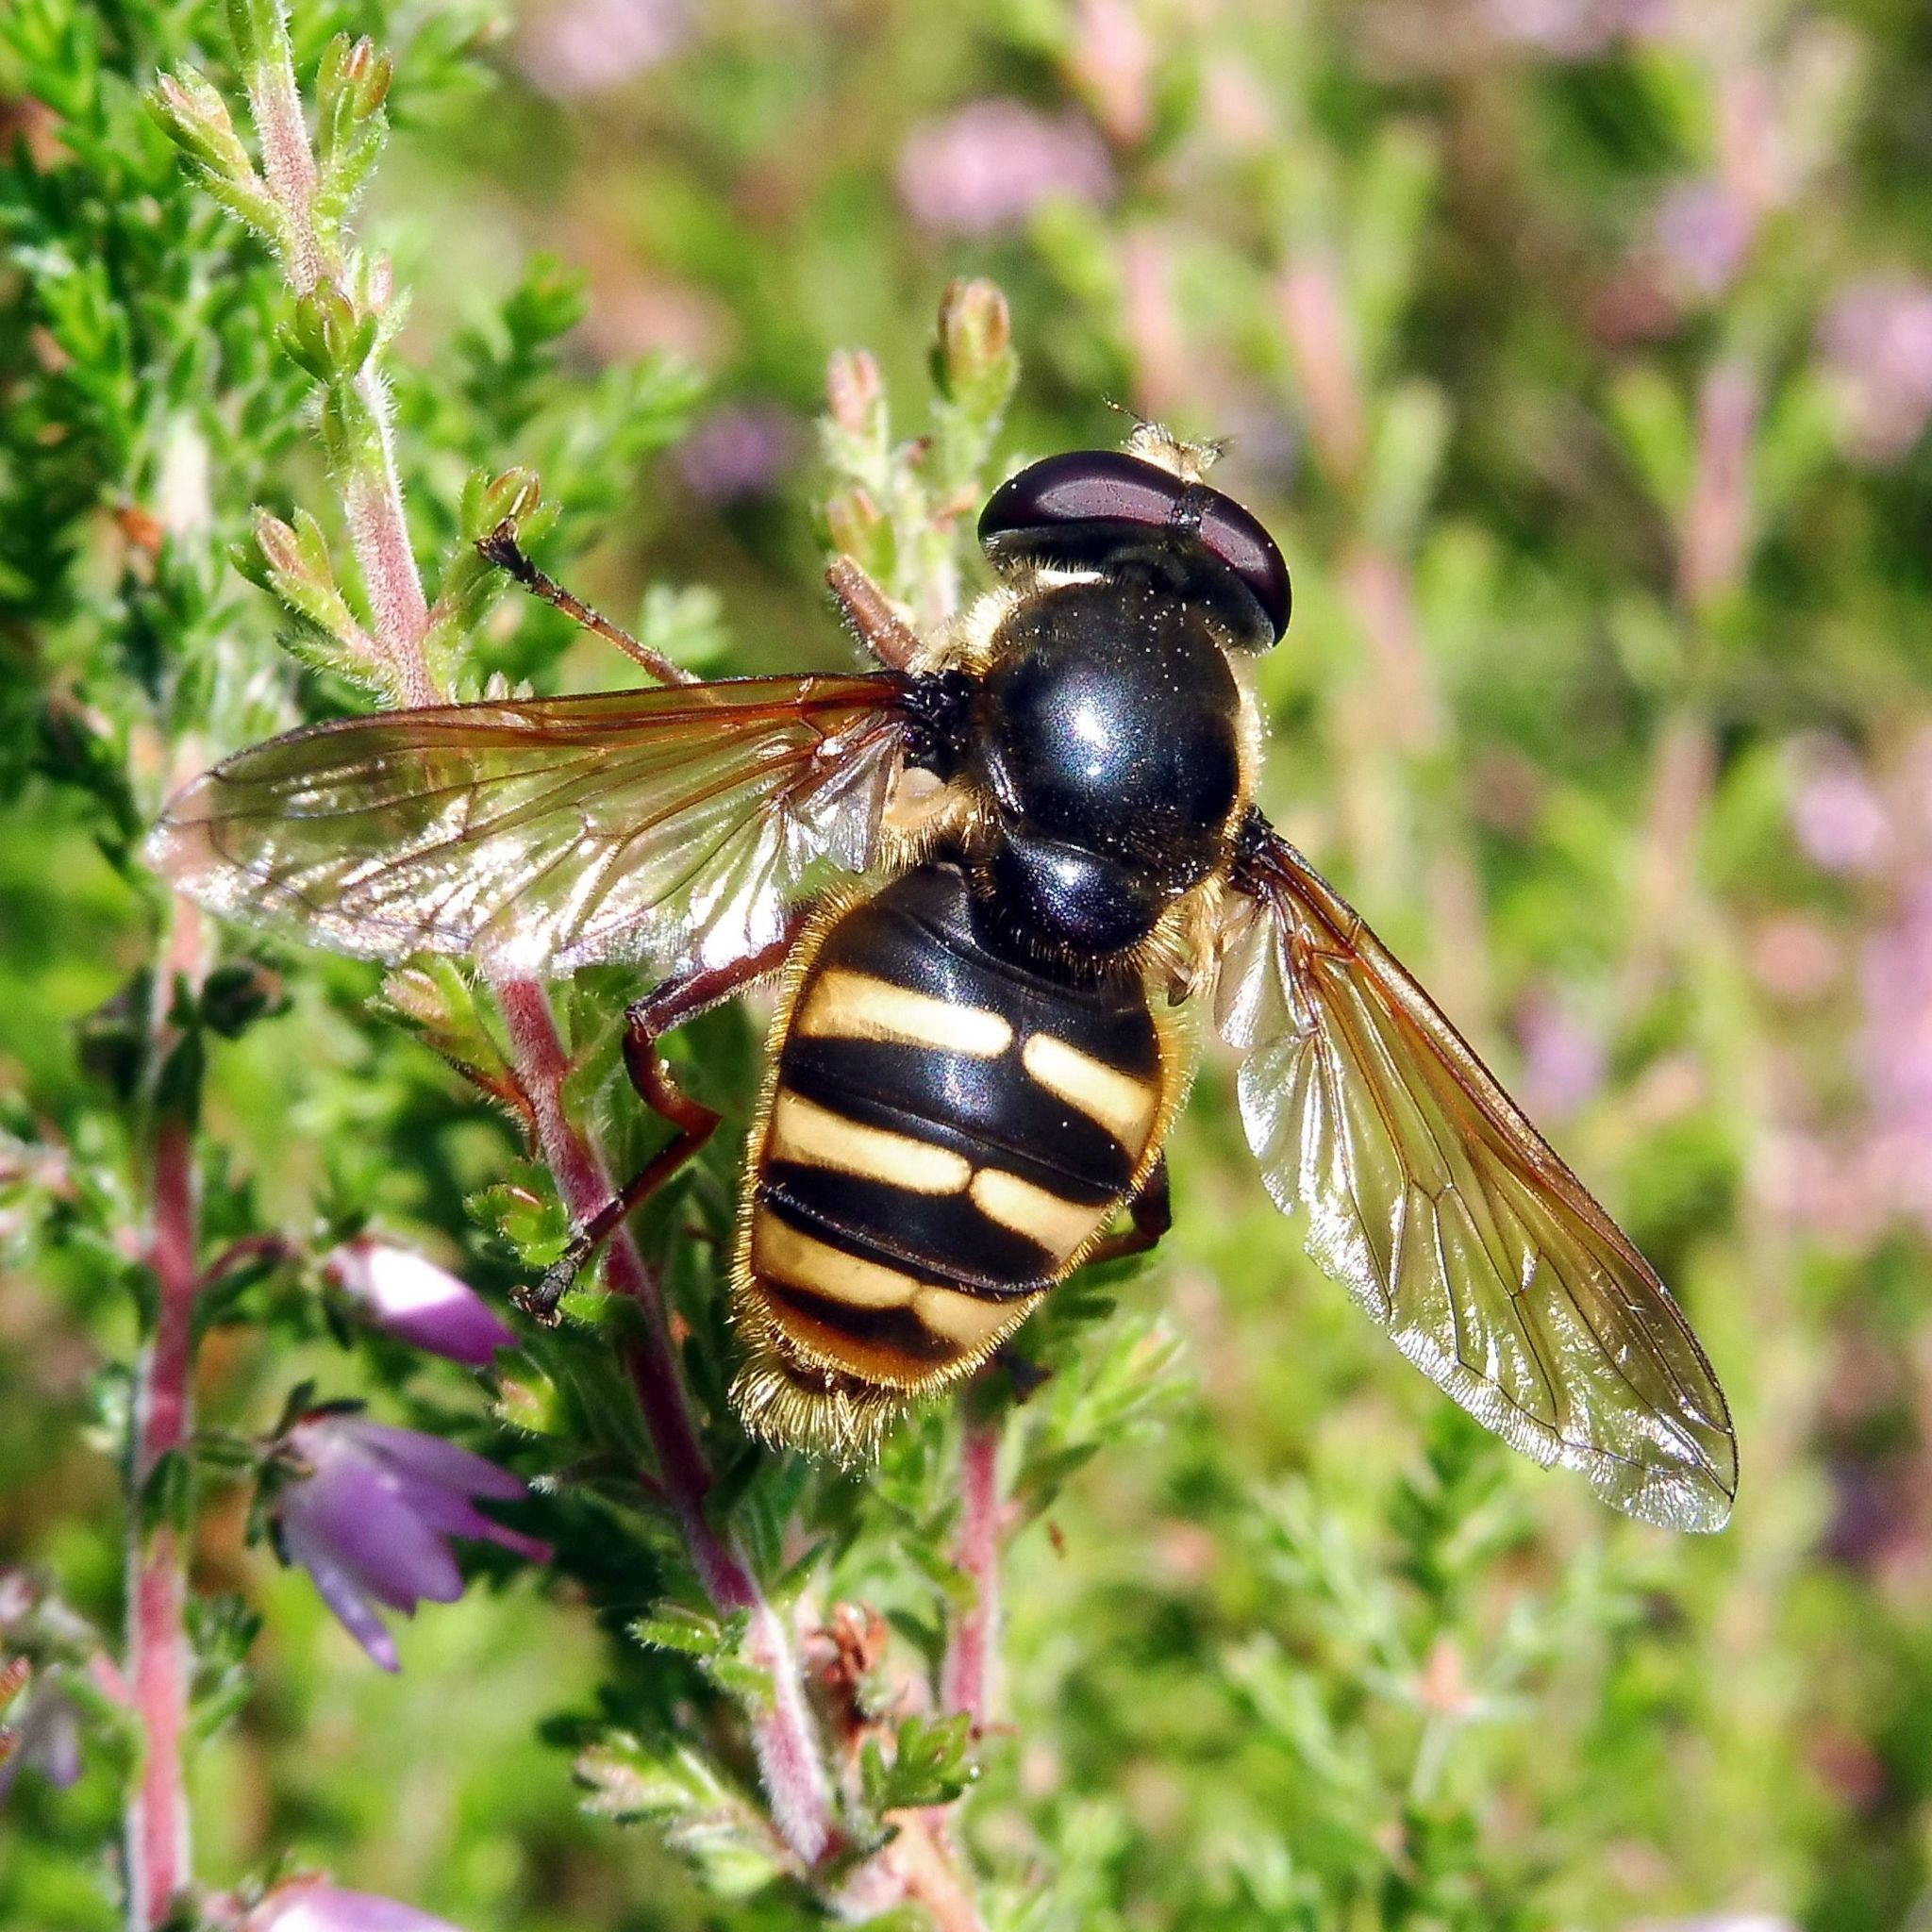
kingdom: Animalia
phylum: Arthropoda
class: Insecta
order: Diptera
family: Syrphidae
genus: Sericomyia
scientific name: Sericomyia silentis
